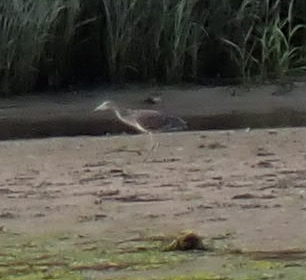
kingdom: Animalia
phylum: Chordata
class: Aves
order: Pelecaniformes
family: Ardeidae
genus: Nyctanassa
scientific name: Nyctanassa violacea
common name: Yellow-crowned night heron
